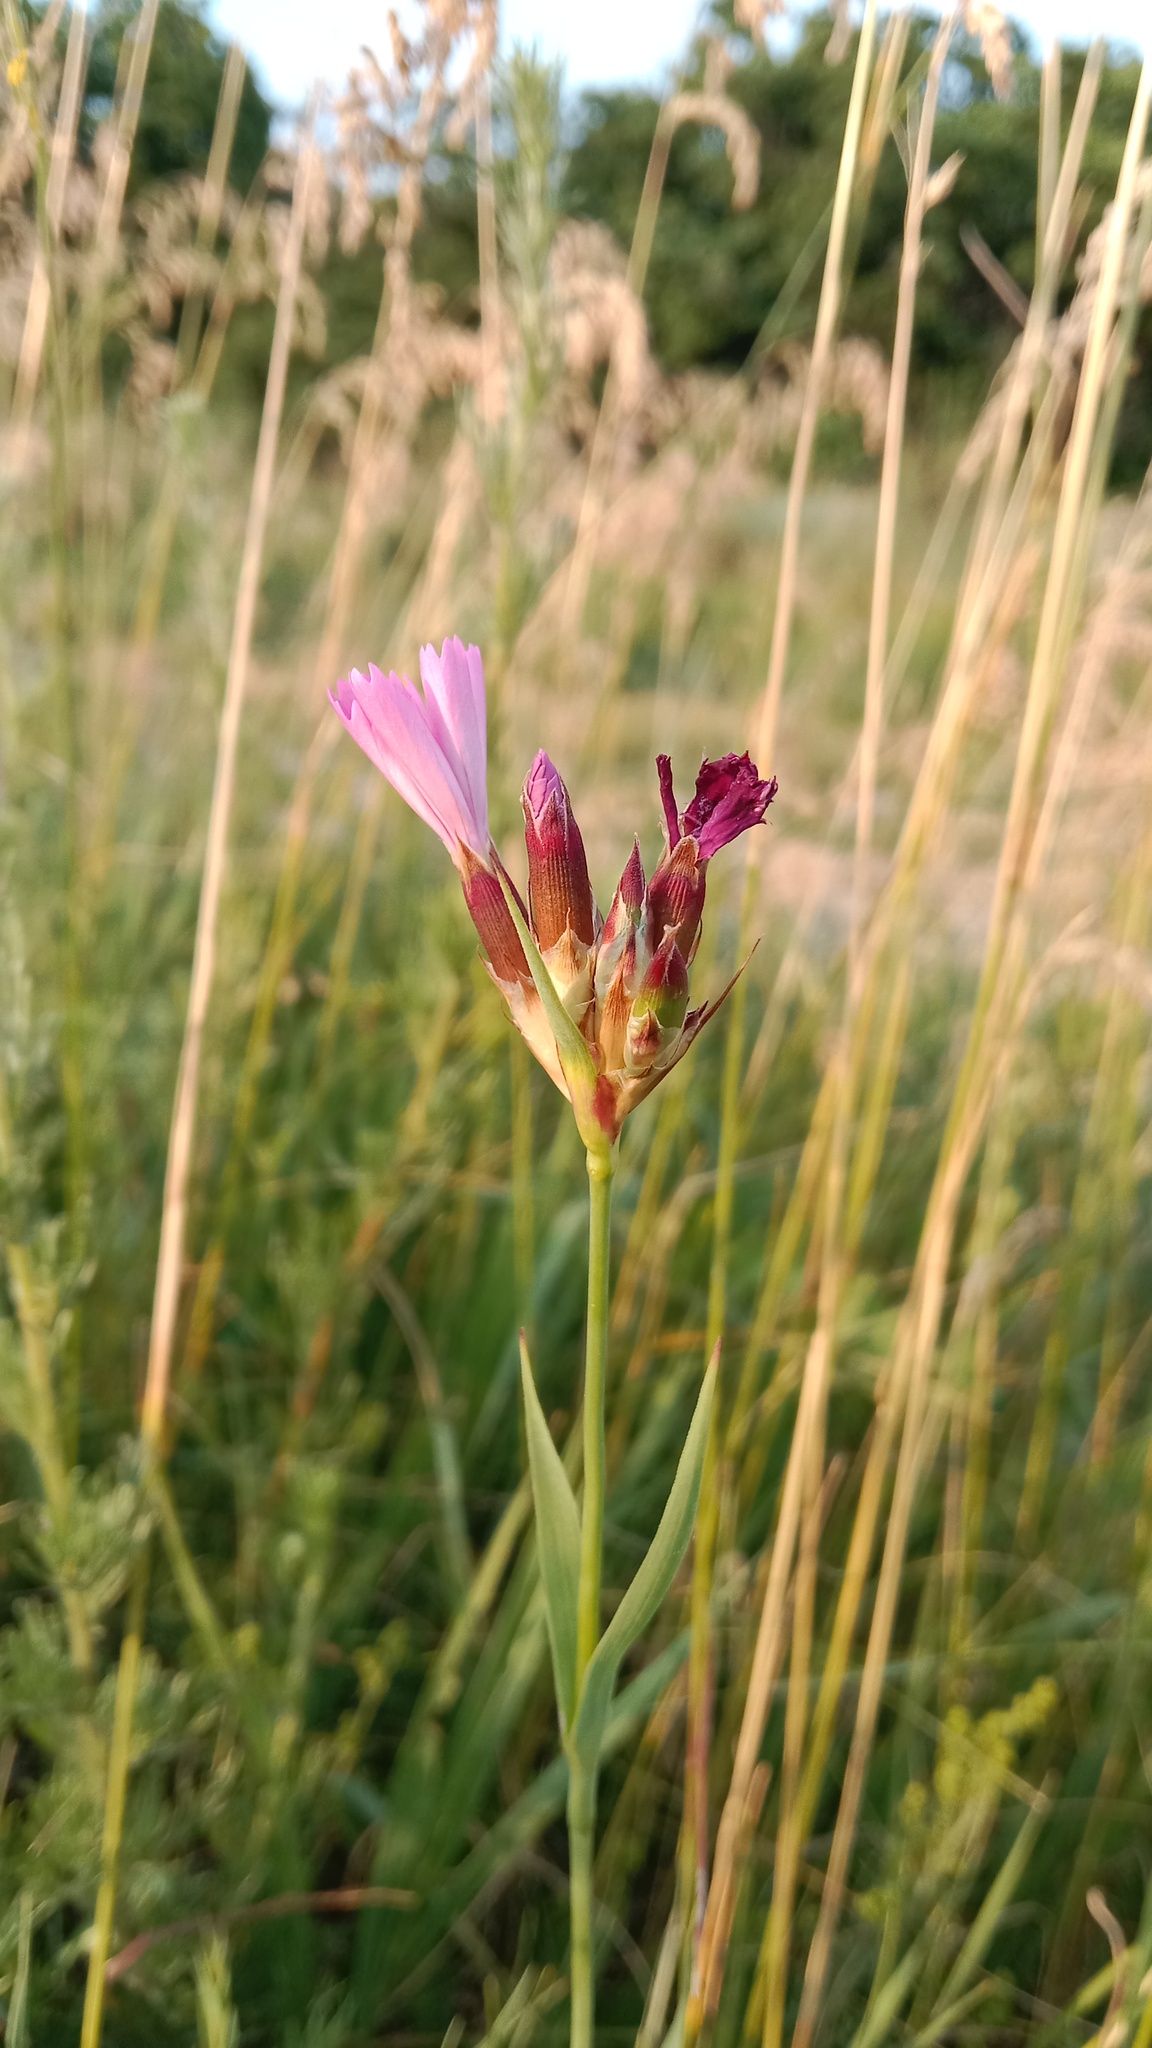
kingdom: Plantae
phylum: Tracheophyta
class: Magnoliopsida
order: Caryophyllales
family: Caryophyllaceae
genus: Dianthus
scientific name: Dianthus borbasii
